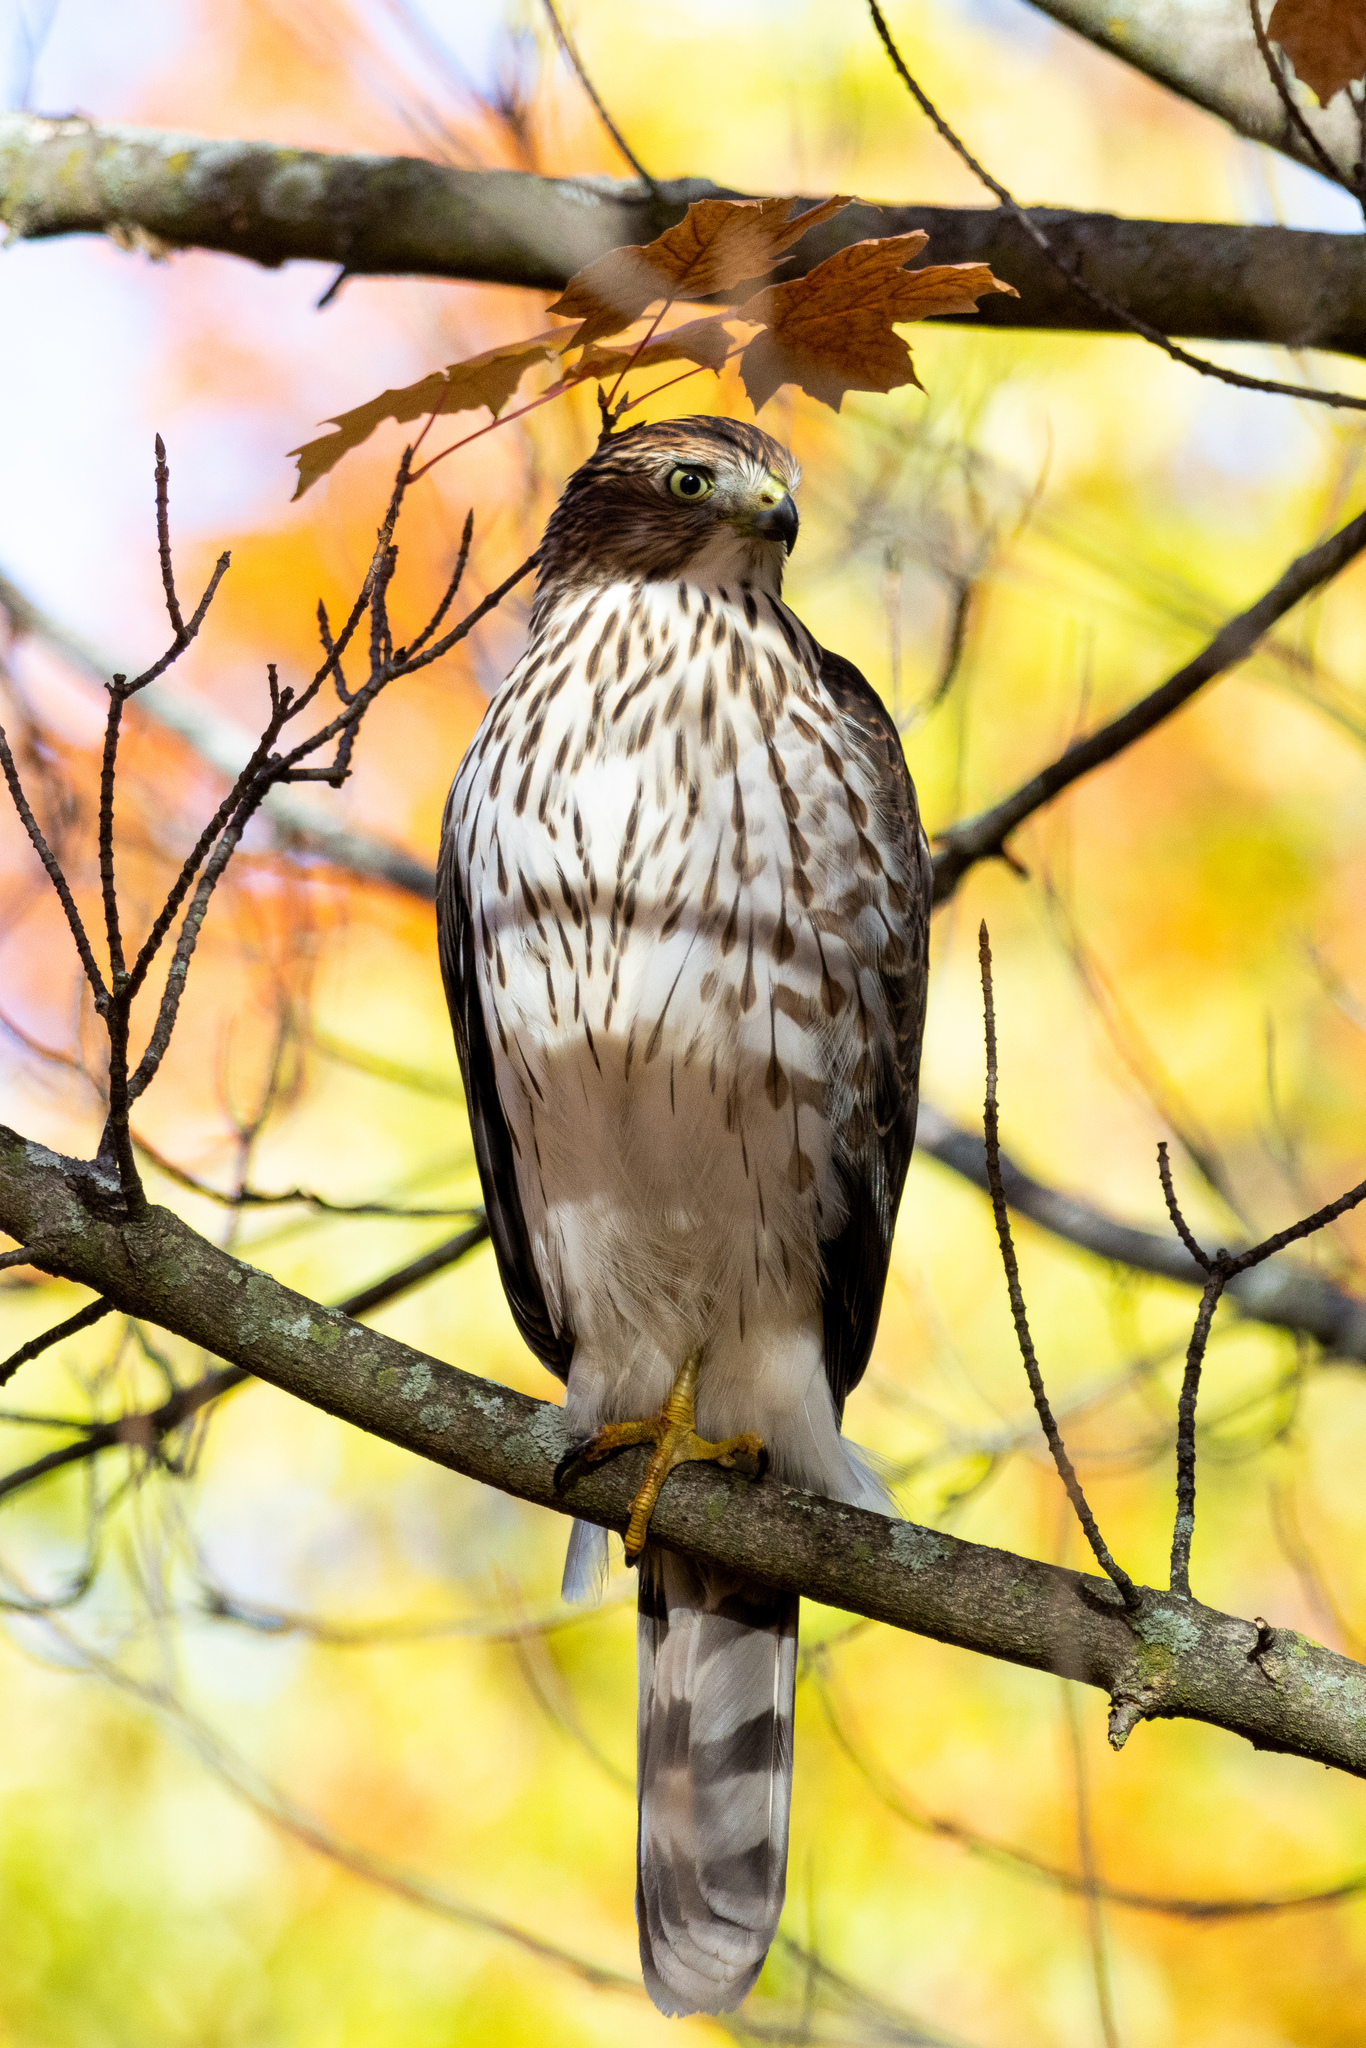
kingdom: Animalia
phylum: Chordata
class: Aves
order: Accipitriformes
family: Accipitridae
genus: Accipiter
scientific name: Accipiter cooperii
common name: Cooper's hawk
